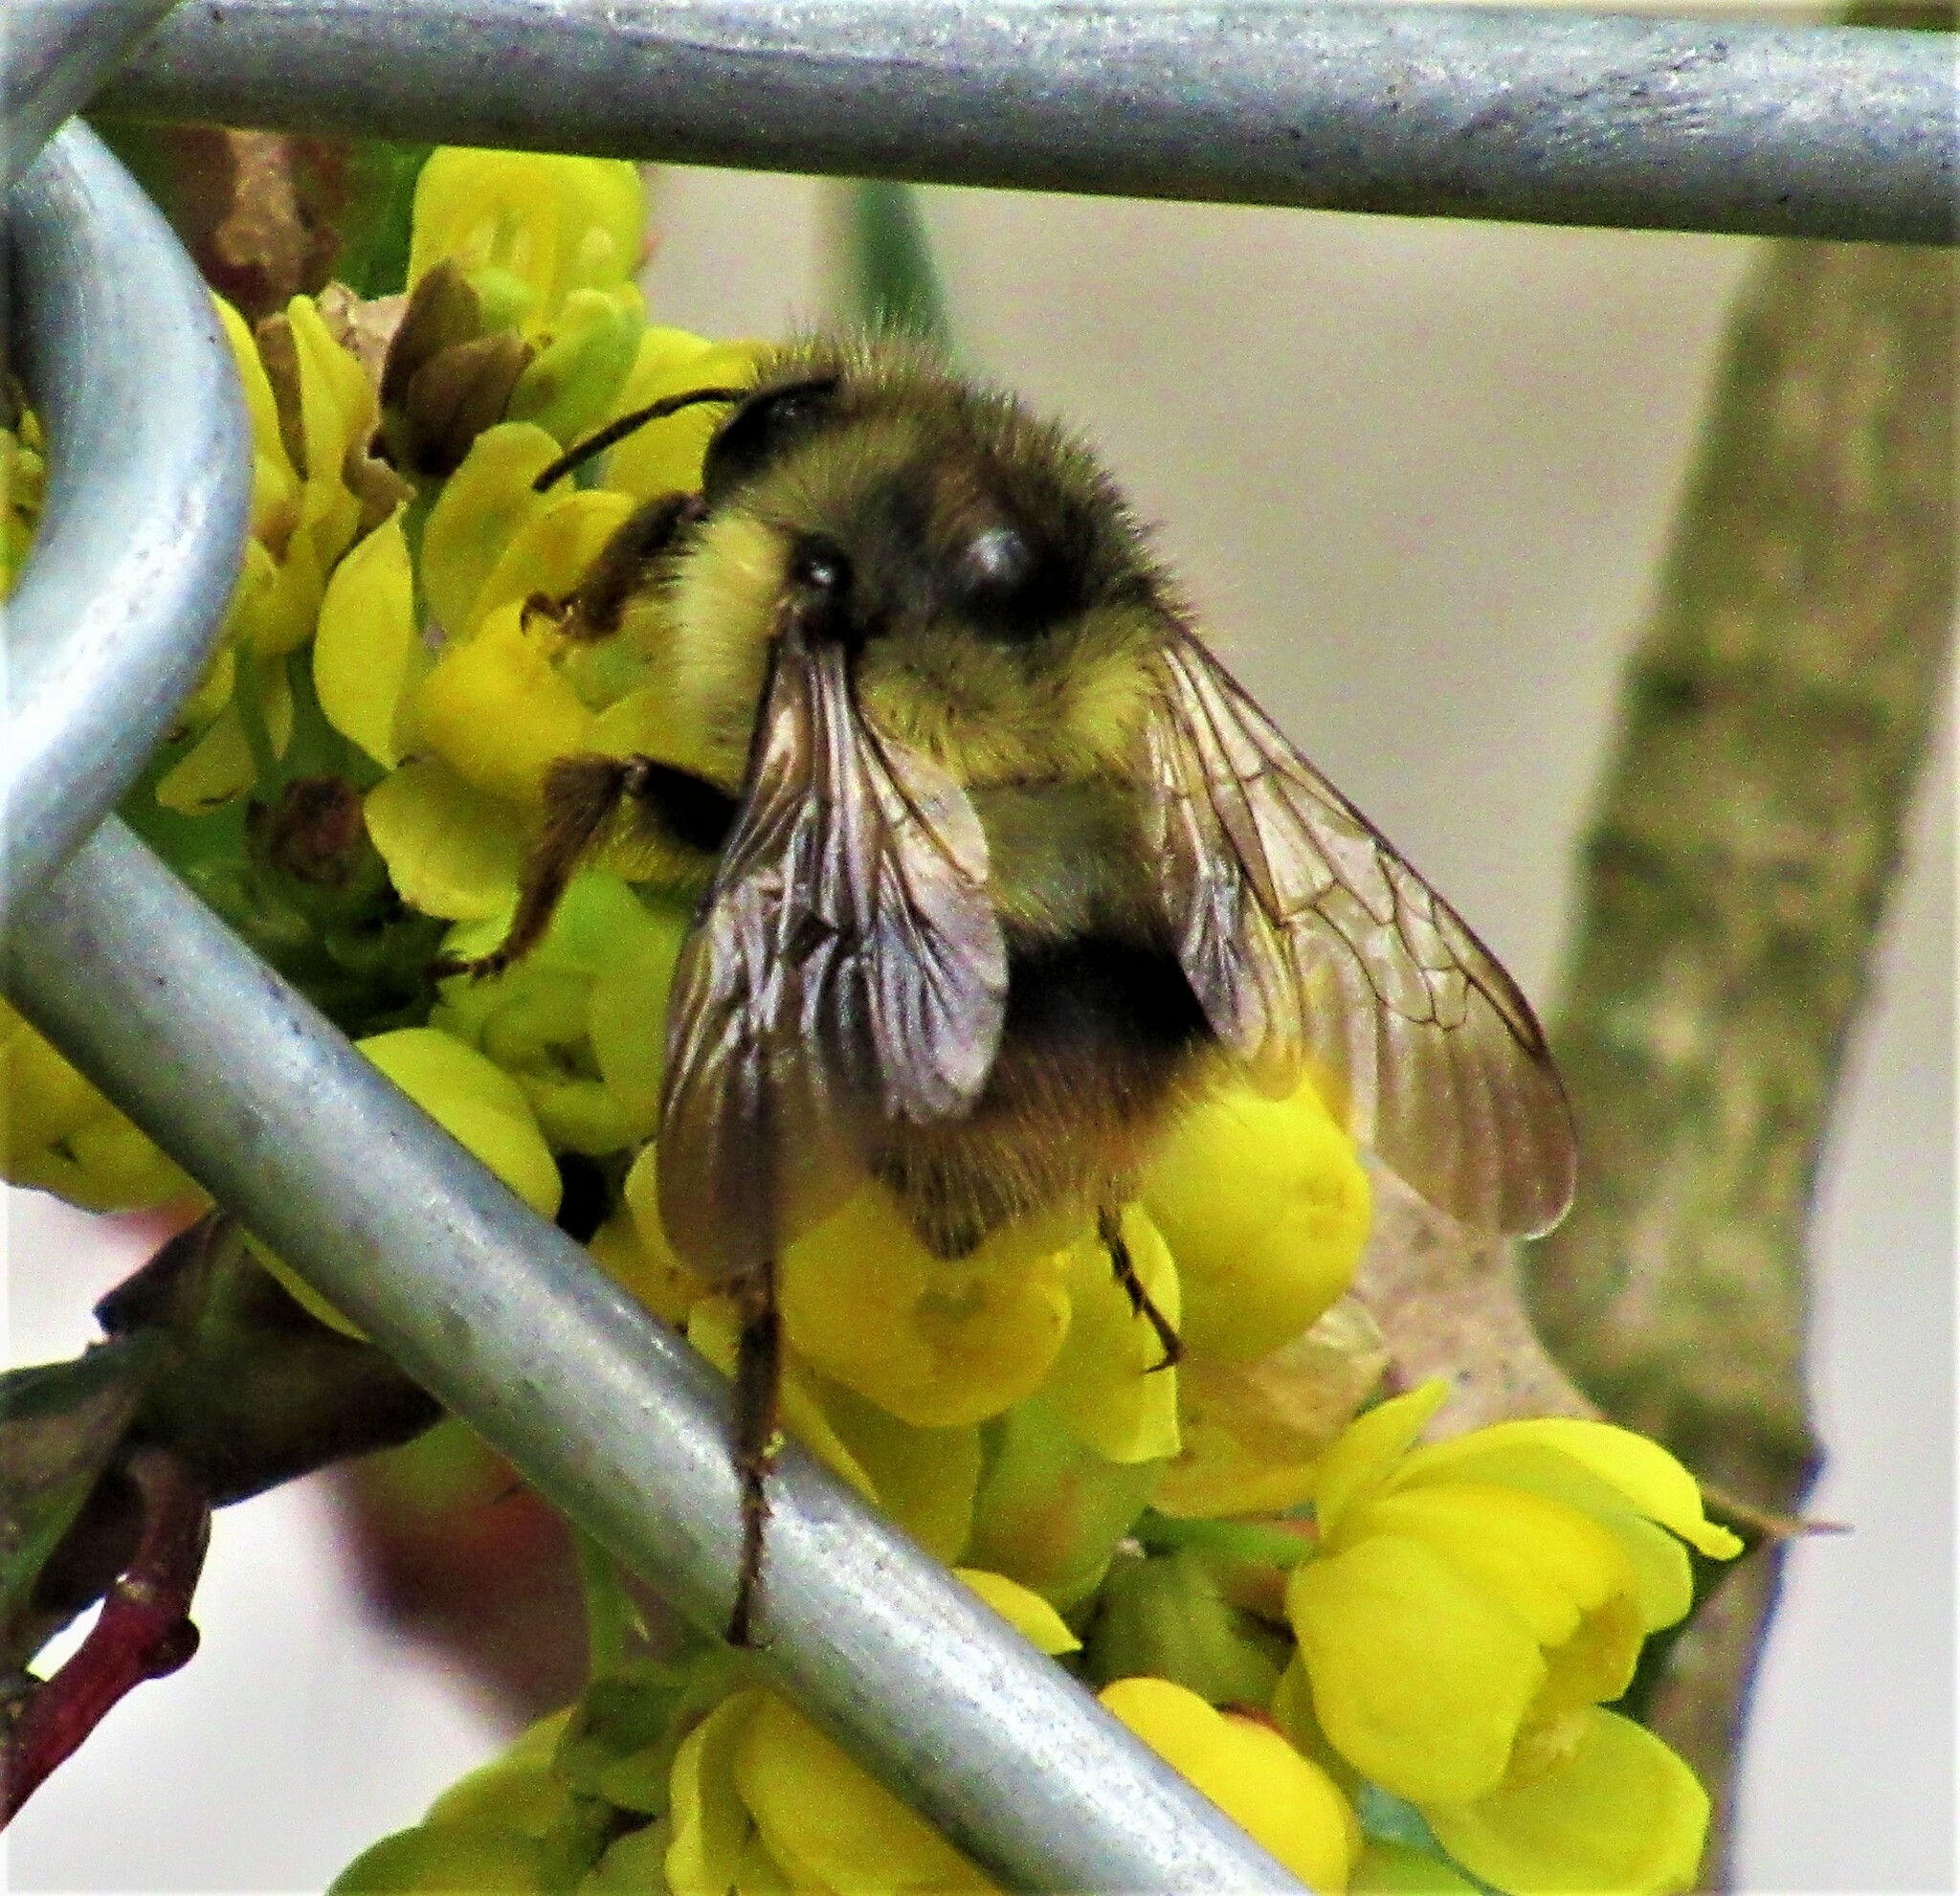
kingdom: Animalia
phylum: Arthropoda
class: Insecta
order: Hymenoptera
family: Apidae
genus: Bombus
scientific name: Bombus mixtus
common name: Fuzzy-horned bumble bee
